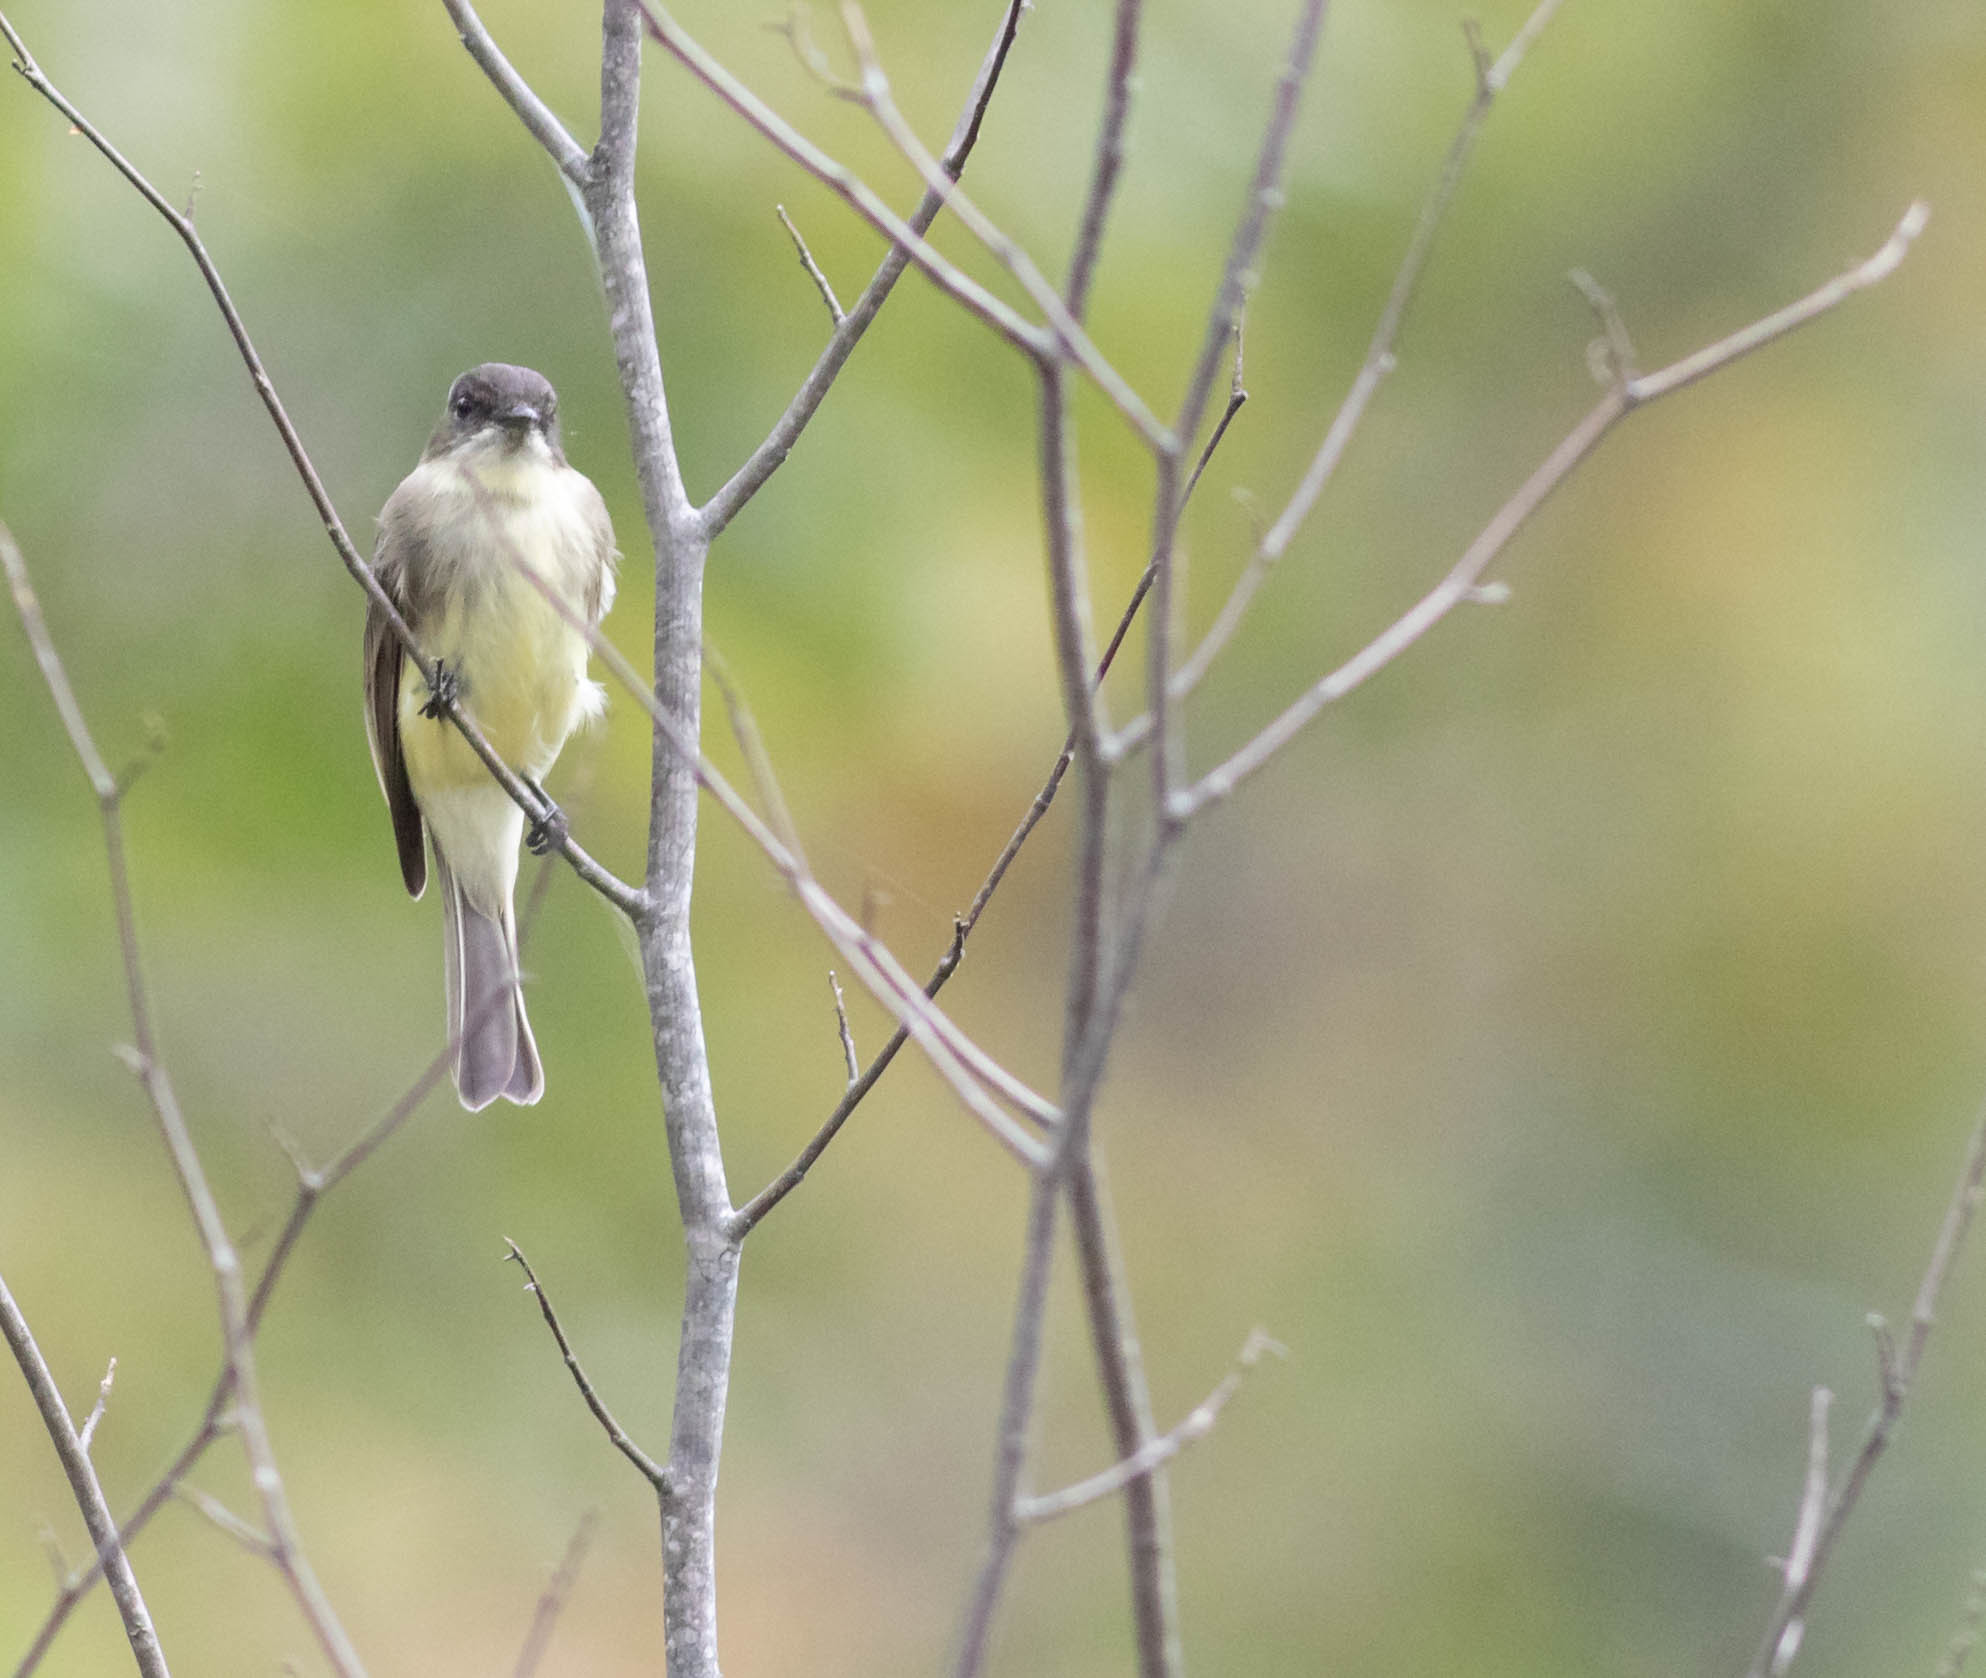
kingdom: Animalia
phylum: Chordata
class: Aves
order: Passeriformes
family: Tyrannidae
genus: Sayornis
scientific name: Sayornis phoebe
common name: Eastern phoebe
